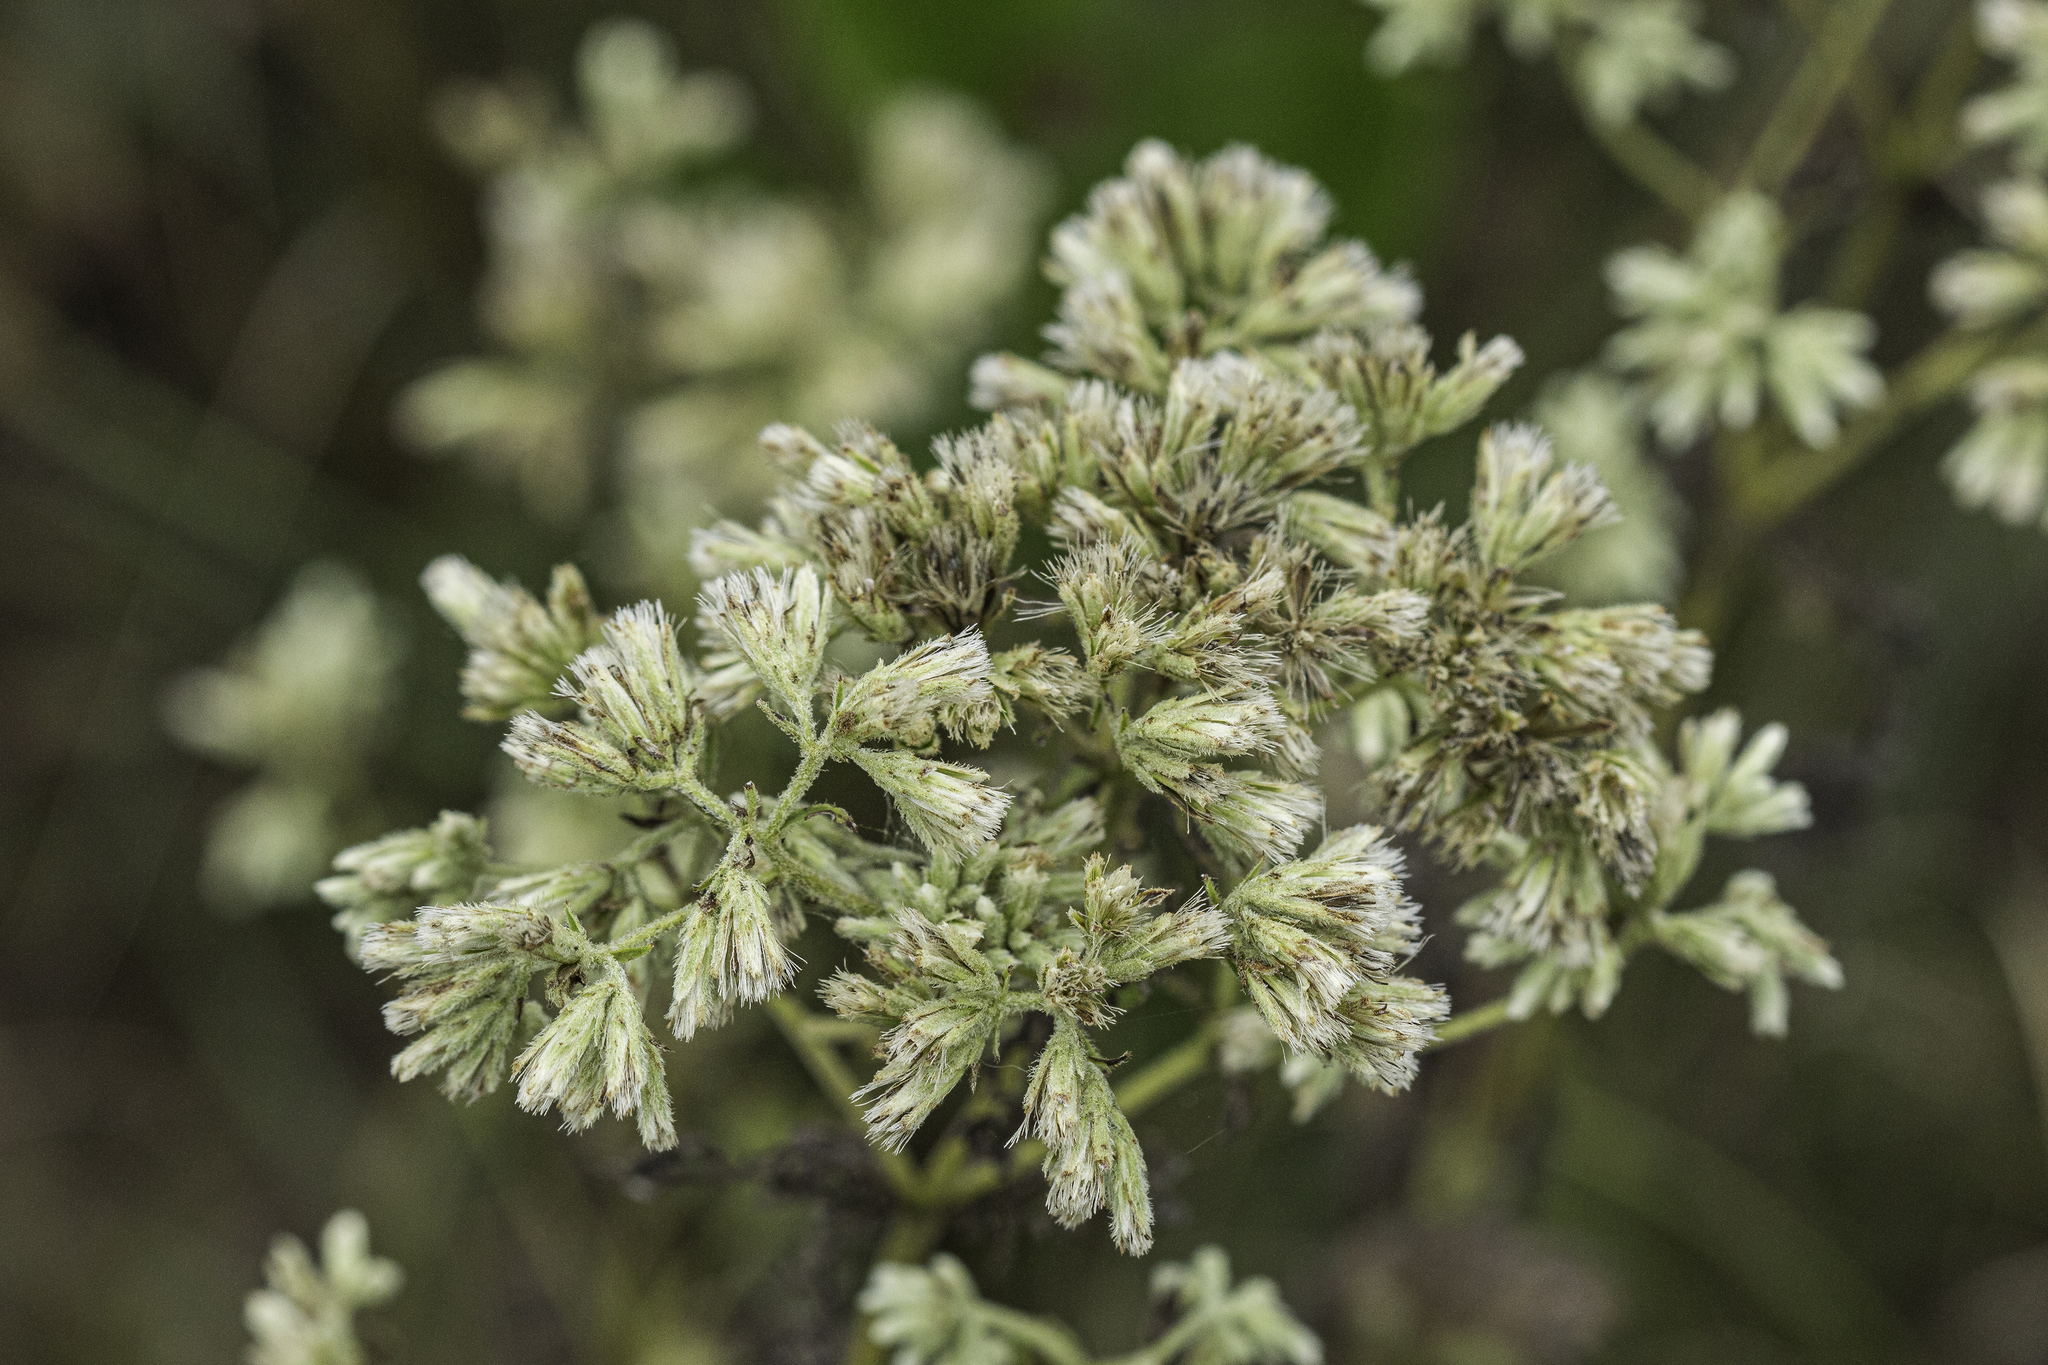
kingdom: Plantae
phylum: Tracheophyta
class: Magnoliopsida
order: Asterales
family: Asteraceae
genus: Eupatorium
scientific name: Eupatorium rotundifolium
